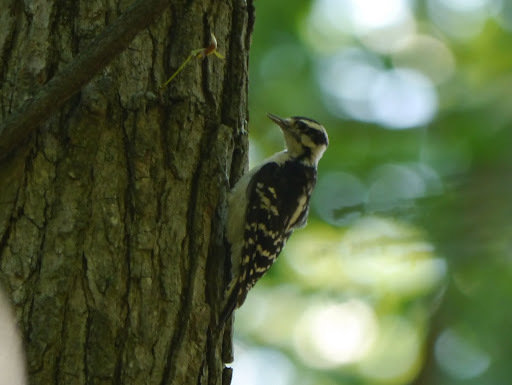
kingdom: Animalia
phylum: Chordata
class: Aves
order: Piciformes
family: Picidae
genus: Dryobates
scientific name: Dryobates pubescens
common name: Downy woodpecker
